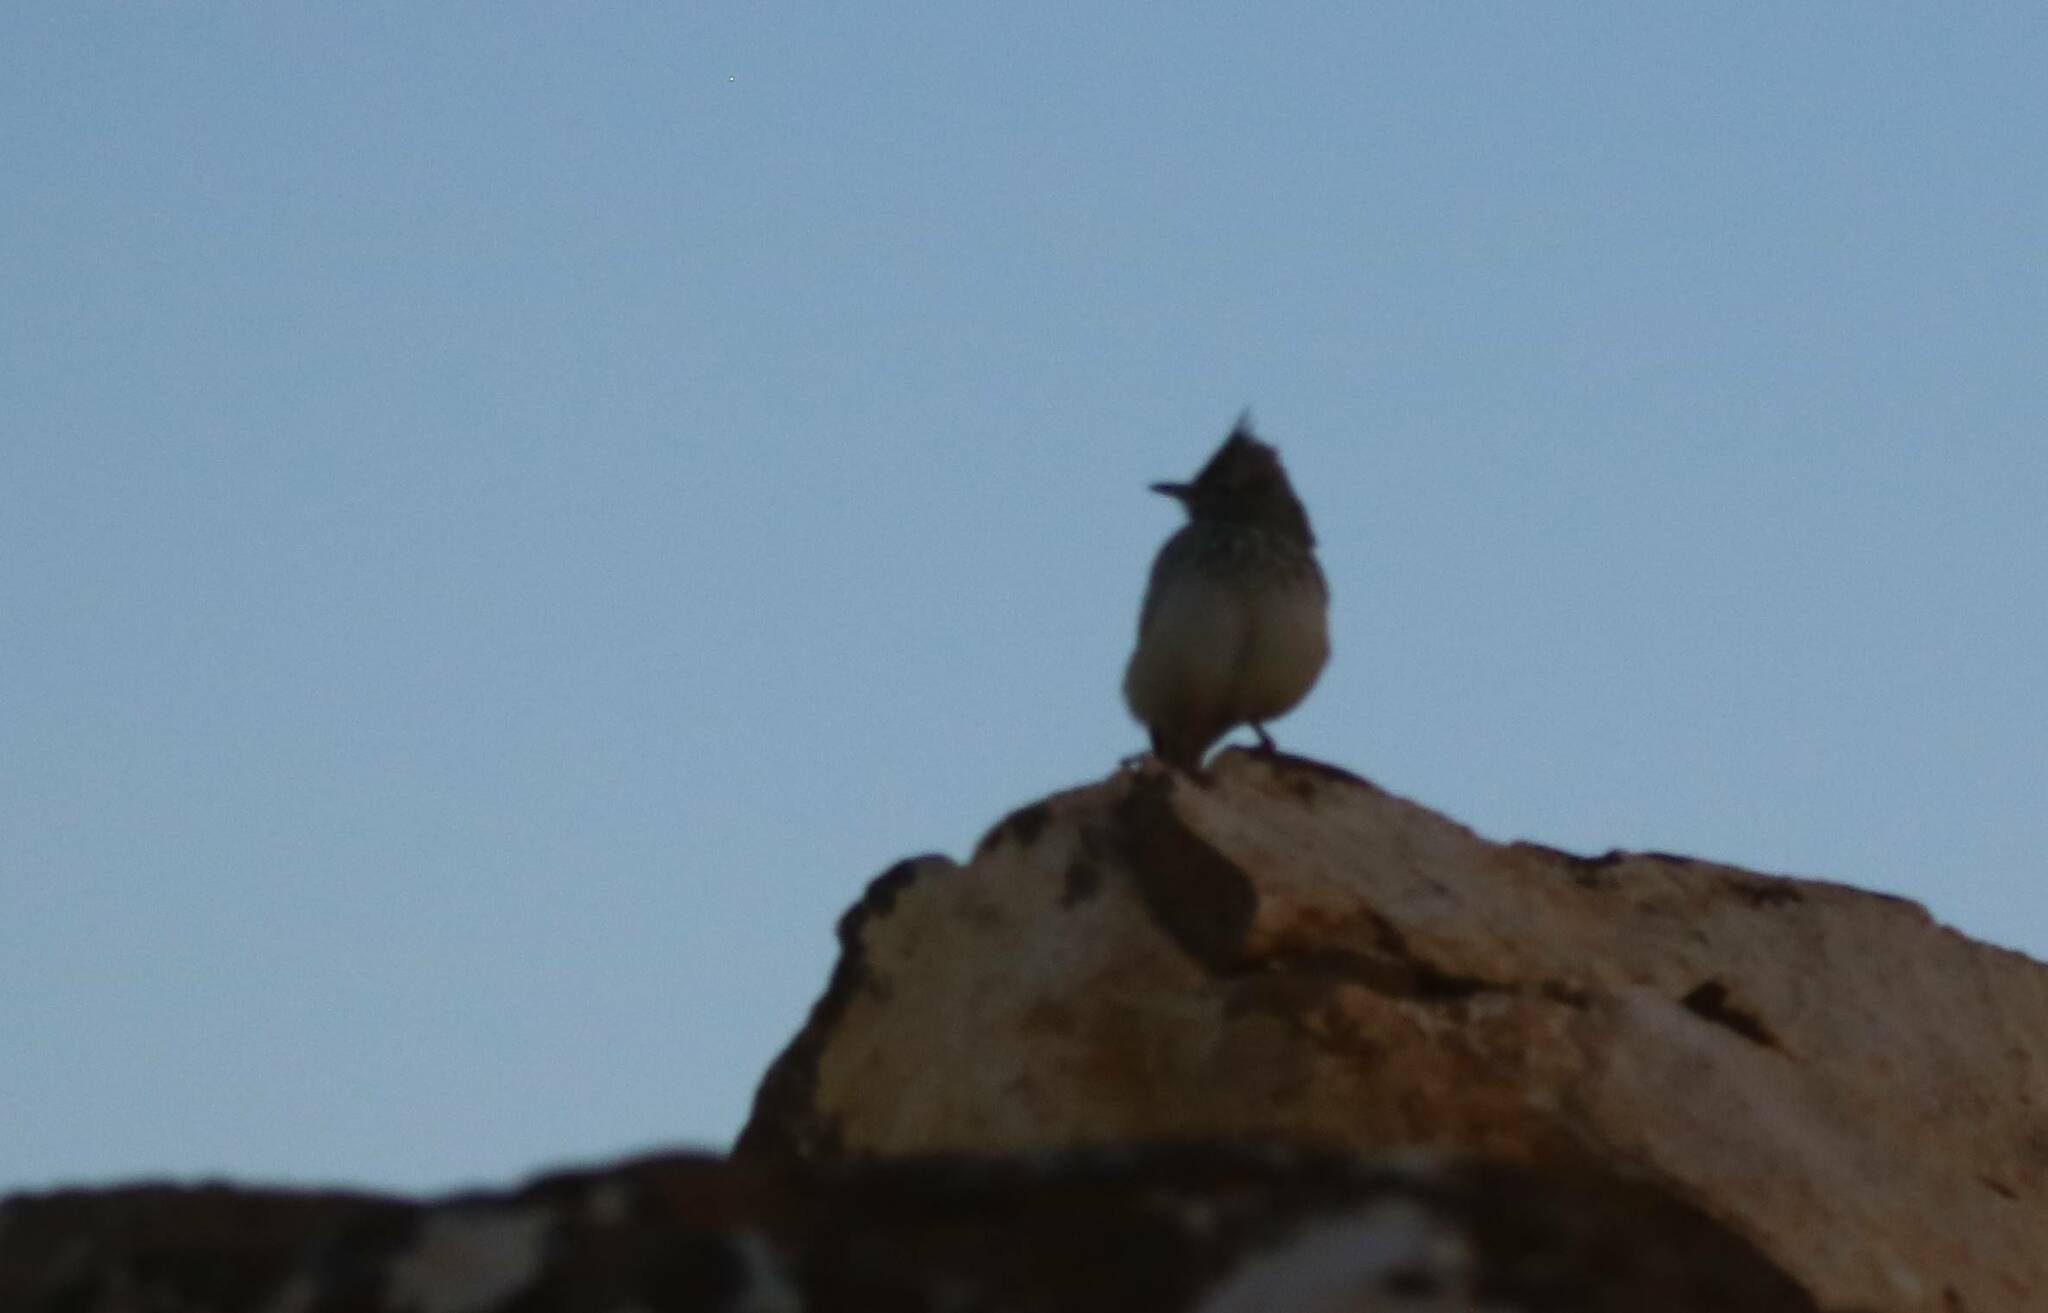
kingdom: Animalia
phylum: Chordata
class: Aves
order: Passeriformes
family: Alaudidae
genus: Galerida
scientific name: Galerida theklae
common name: Thekla lark
